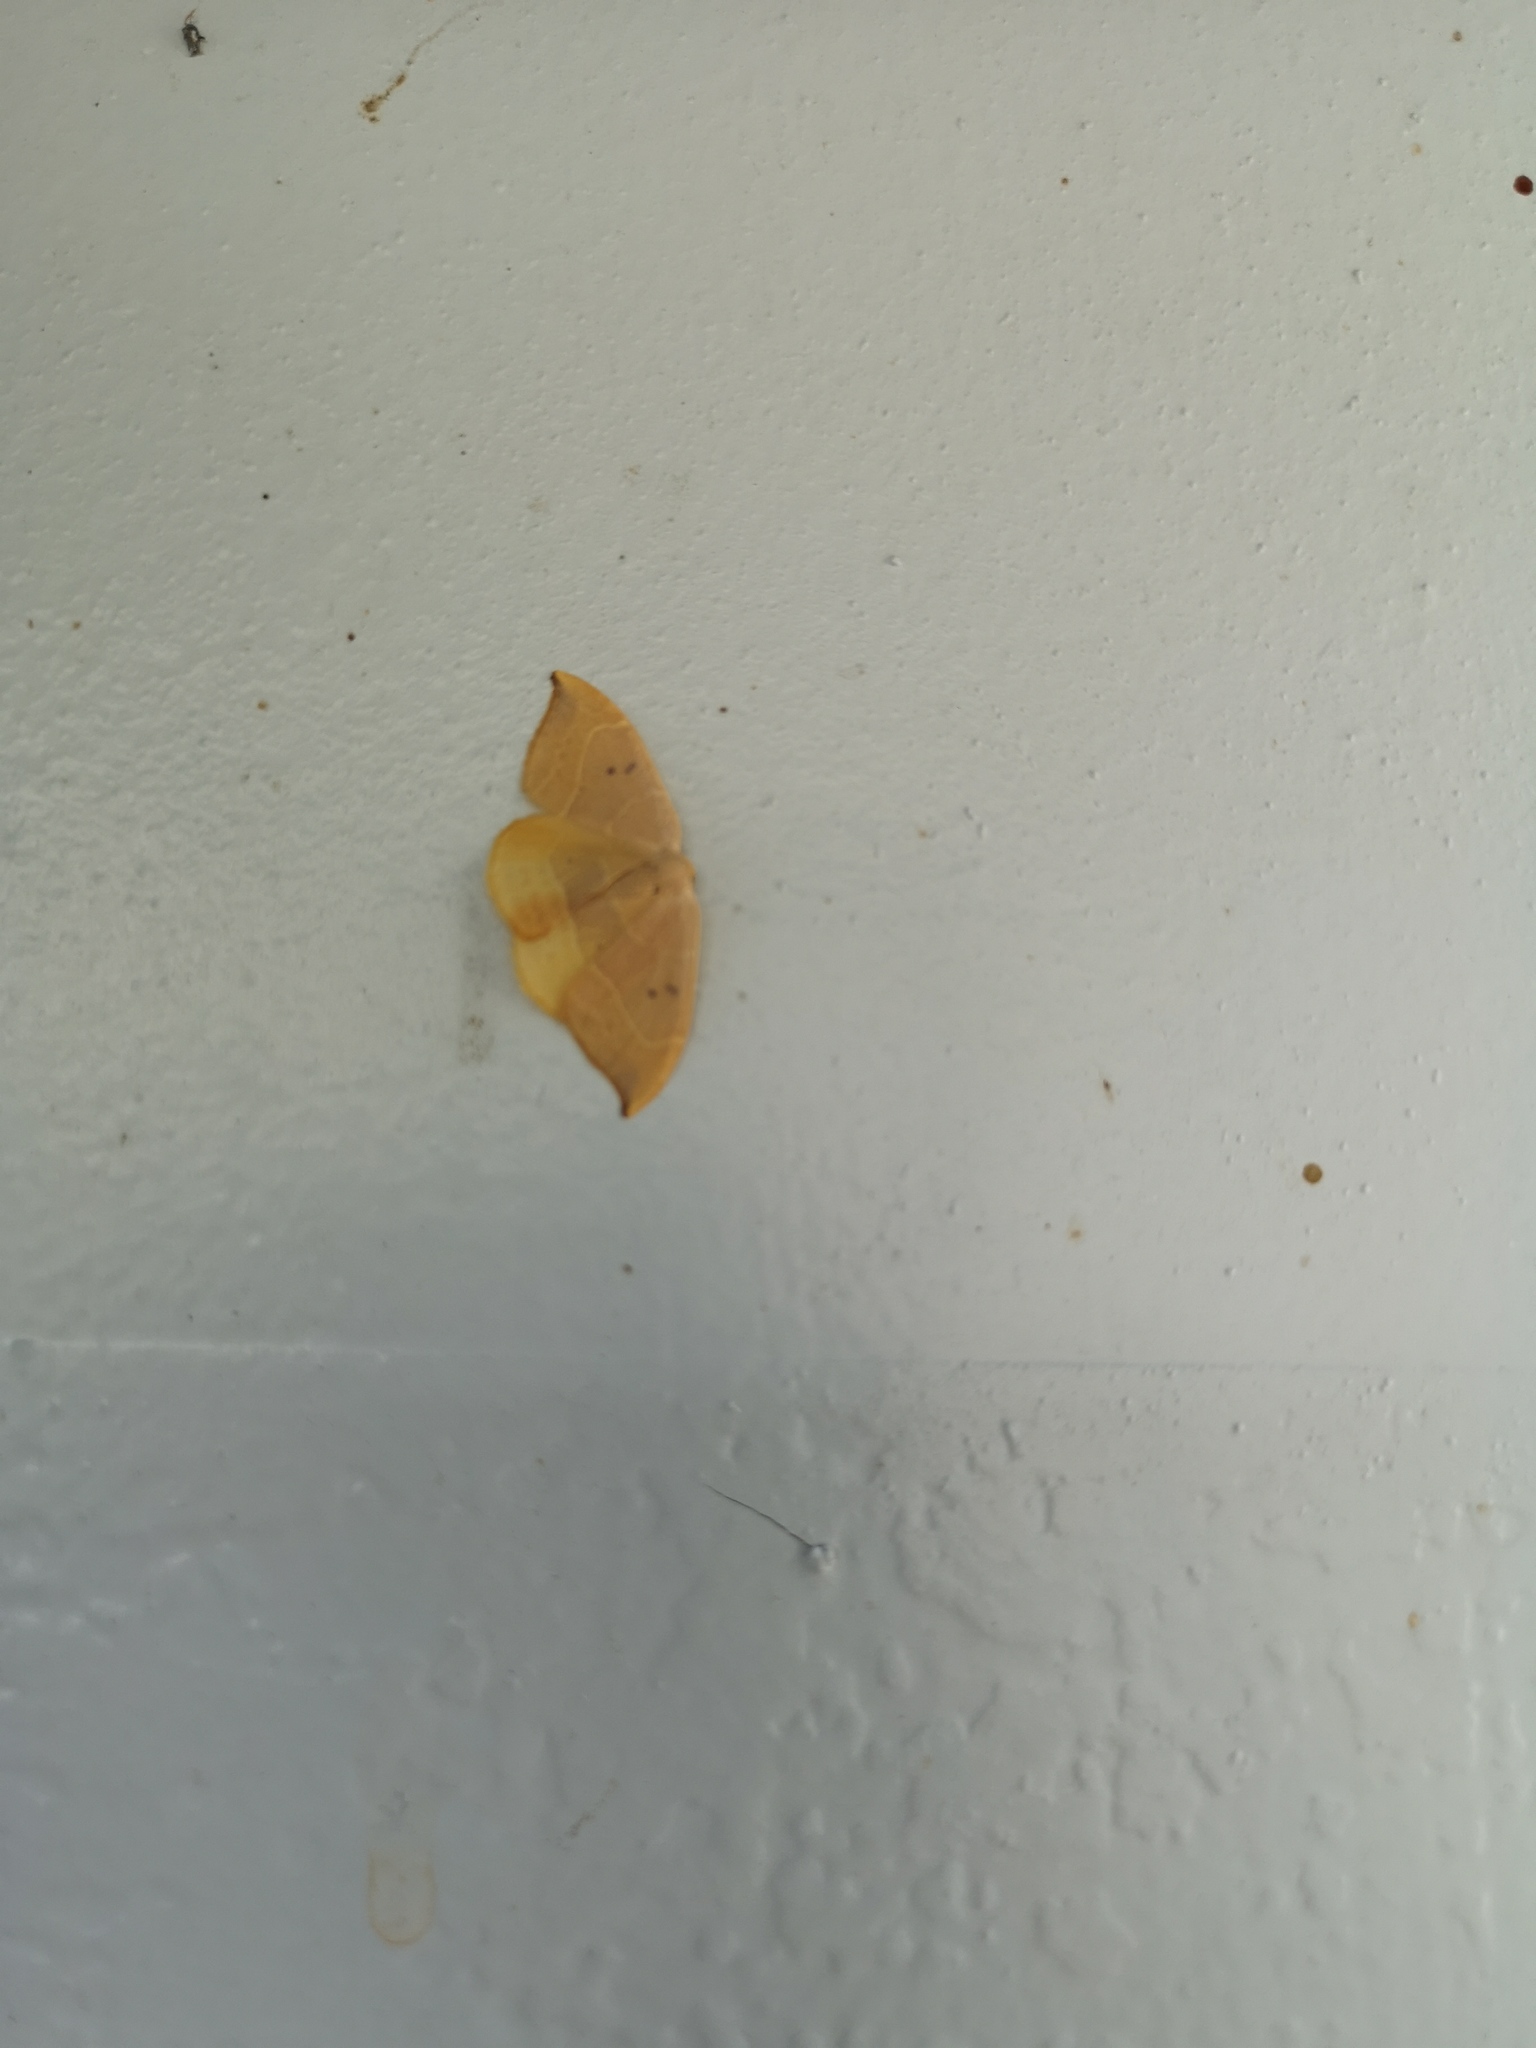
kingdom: Animalia
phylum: Arthropoda
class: Insecta
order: Lepidoptera
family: Drepanidae
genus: Watsonalla
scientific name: Watsonalla binaria
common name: Oak hook-tip
